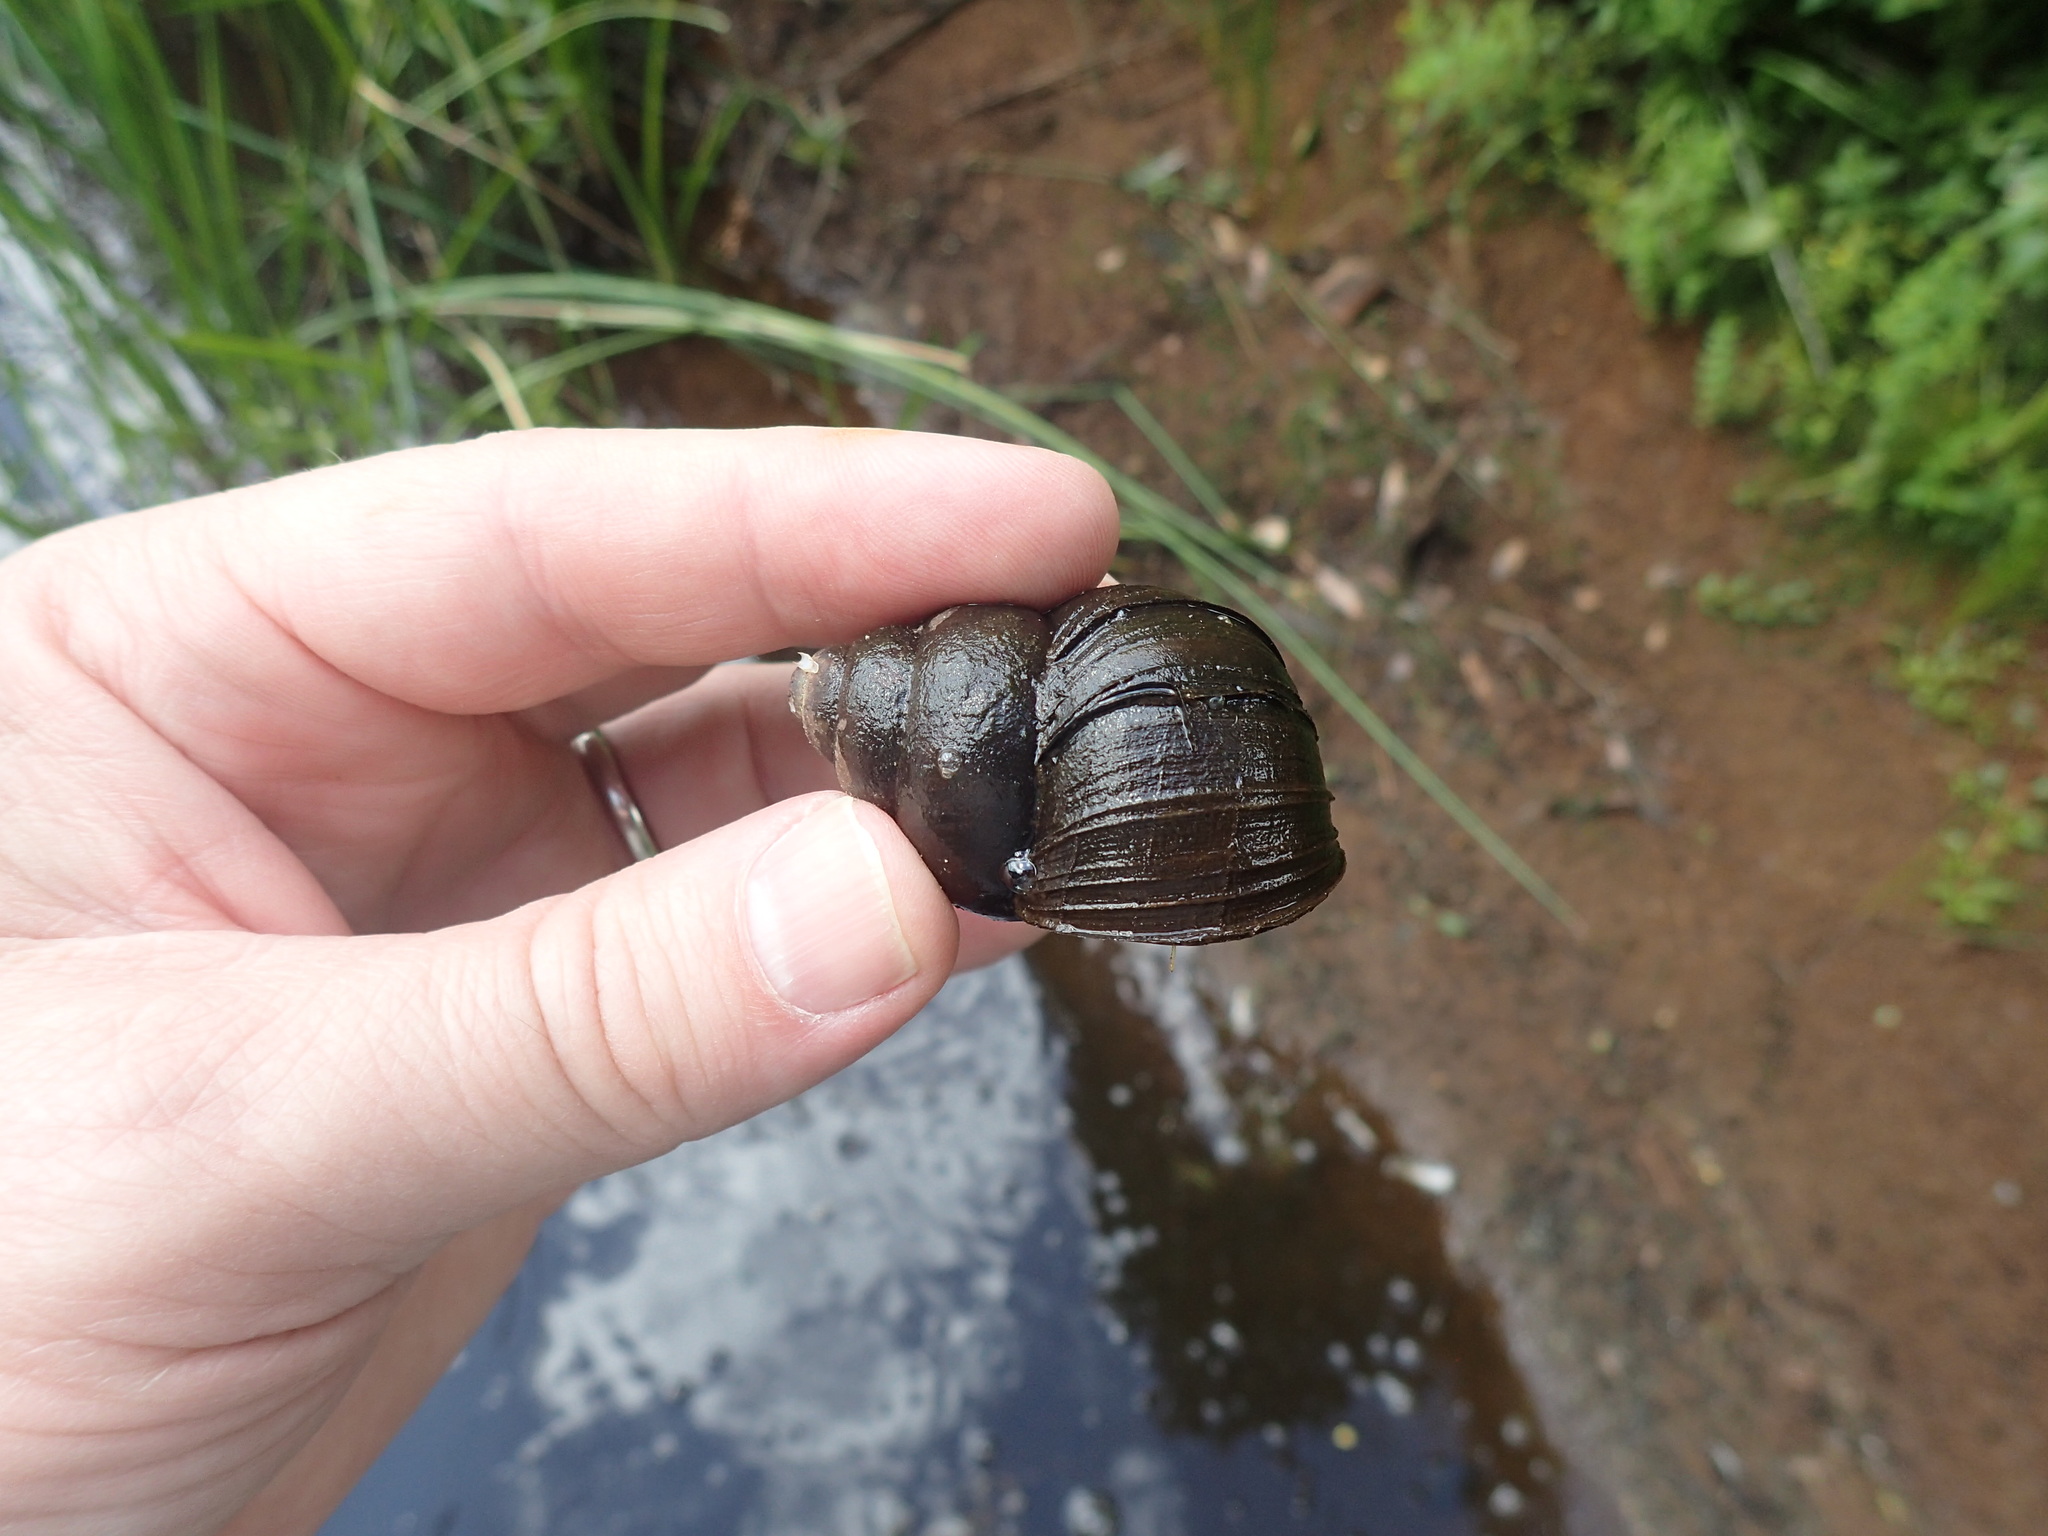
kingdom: Animalia
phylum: Mollusca
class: Gastropoda
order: Architaenioglossa
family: Viviparidae
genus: Cipangopaludina
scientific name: Cipangopaludina chinensis
